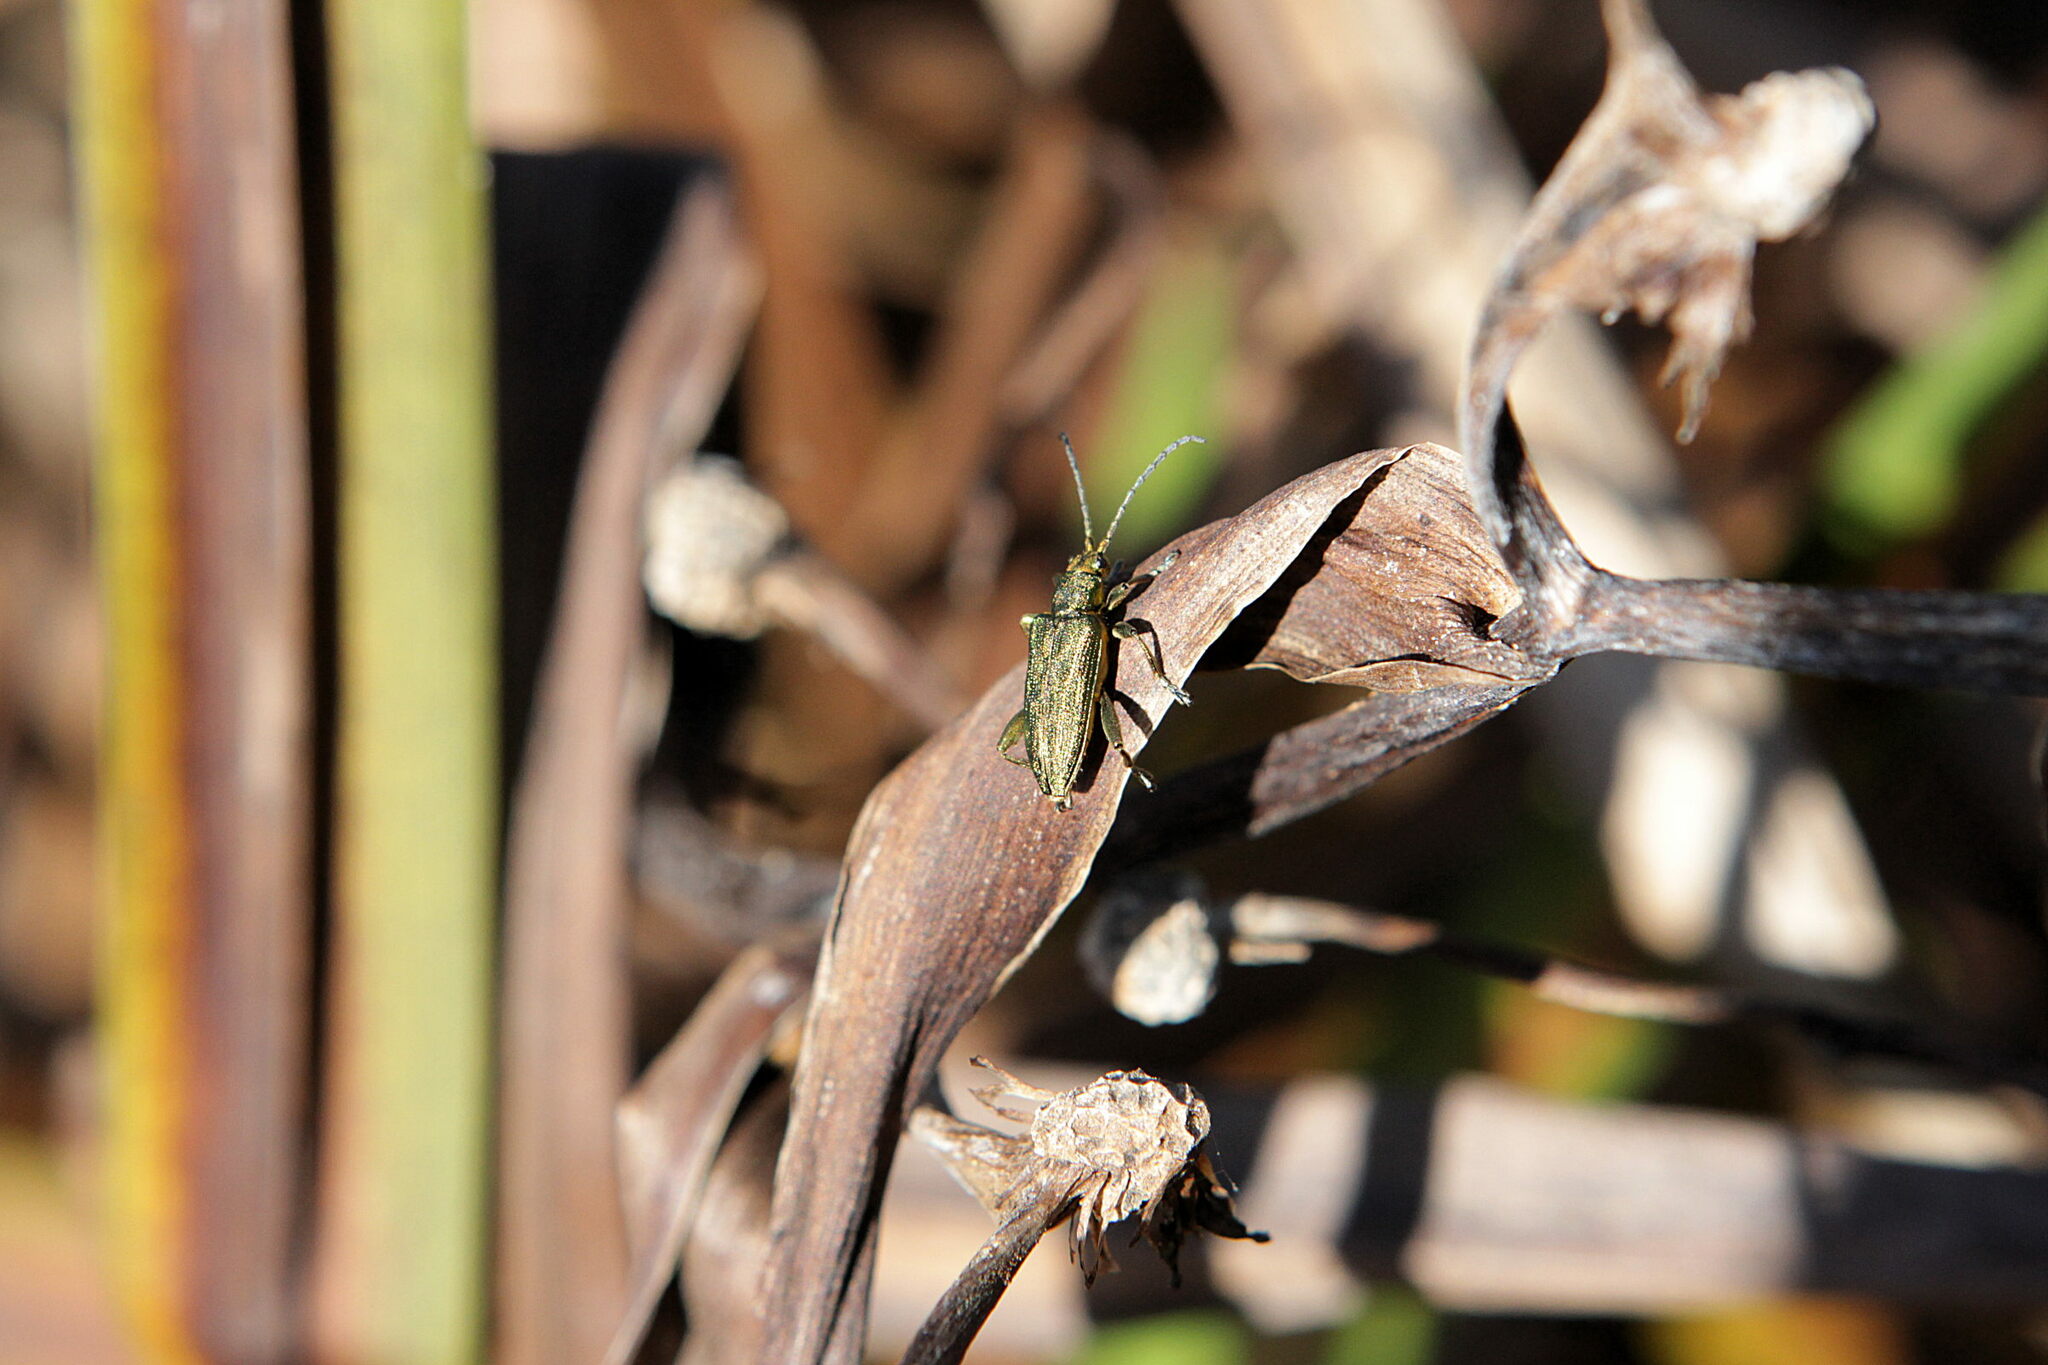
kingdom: Animalia
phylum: Arthropoda
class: Insecta
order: Coleoptera
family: Chrysomelidae
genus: Donacia
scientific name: Donacia bicolora
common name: Reed beetle
